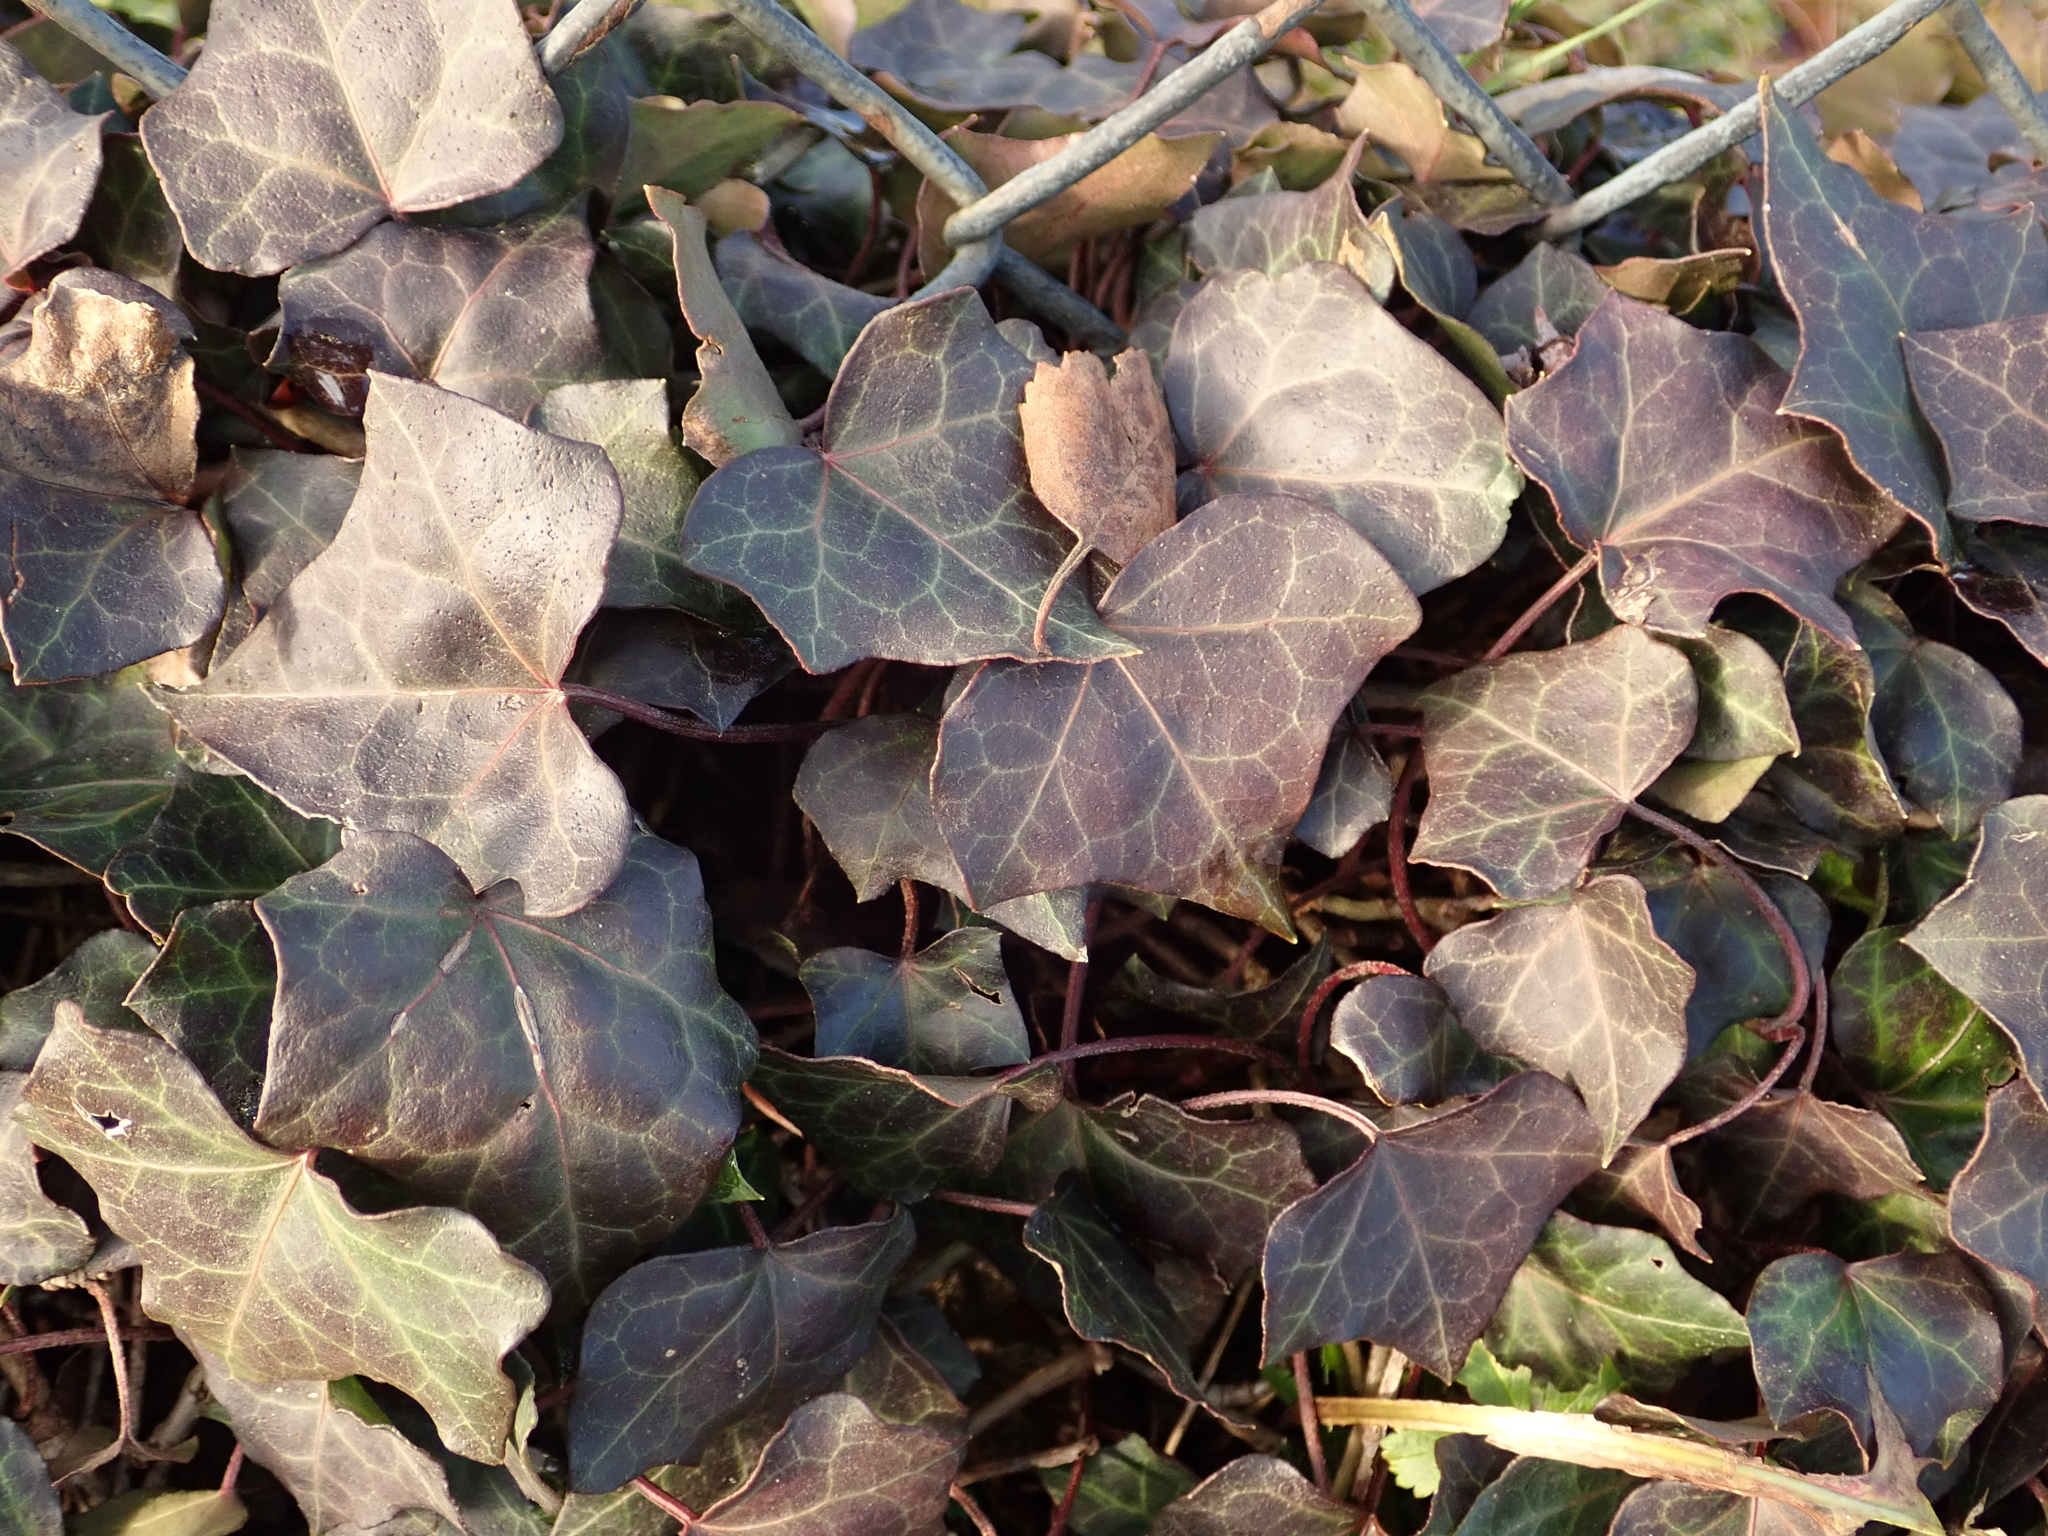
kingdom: Plantae
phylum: Tracheophyta
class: Magnoliopsida
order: Apiales
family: Araliaceae
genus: Hedera
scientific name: Hedera helix
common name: Ivy
